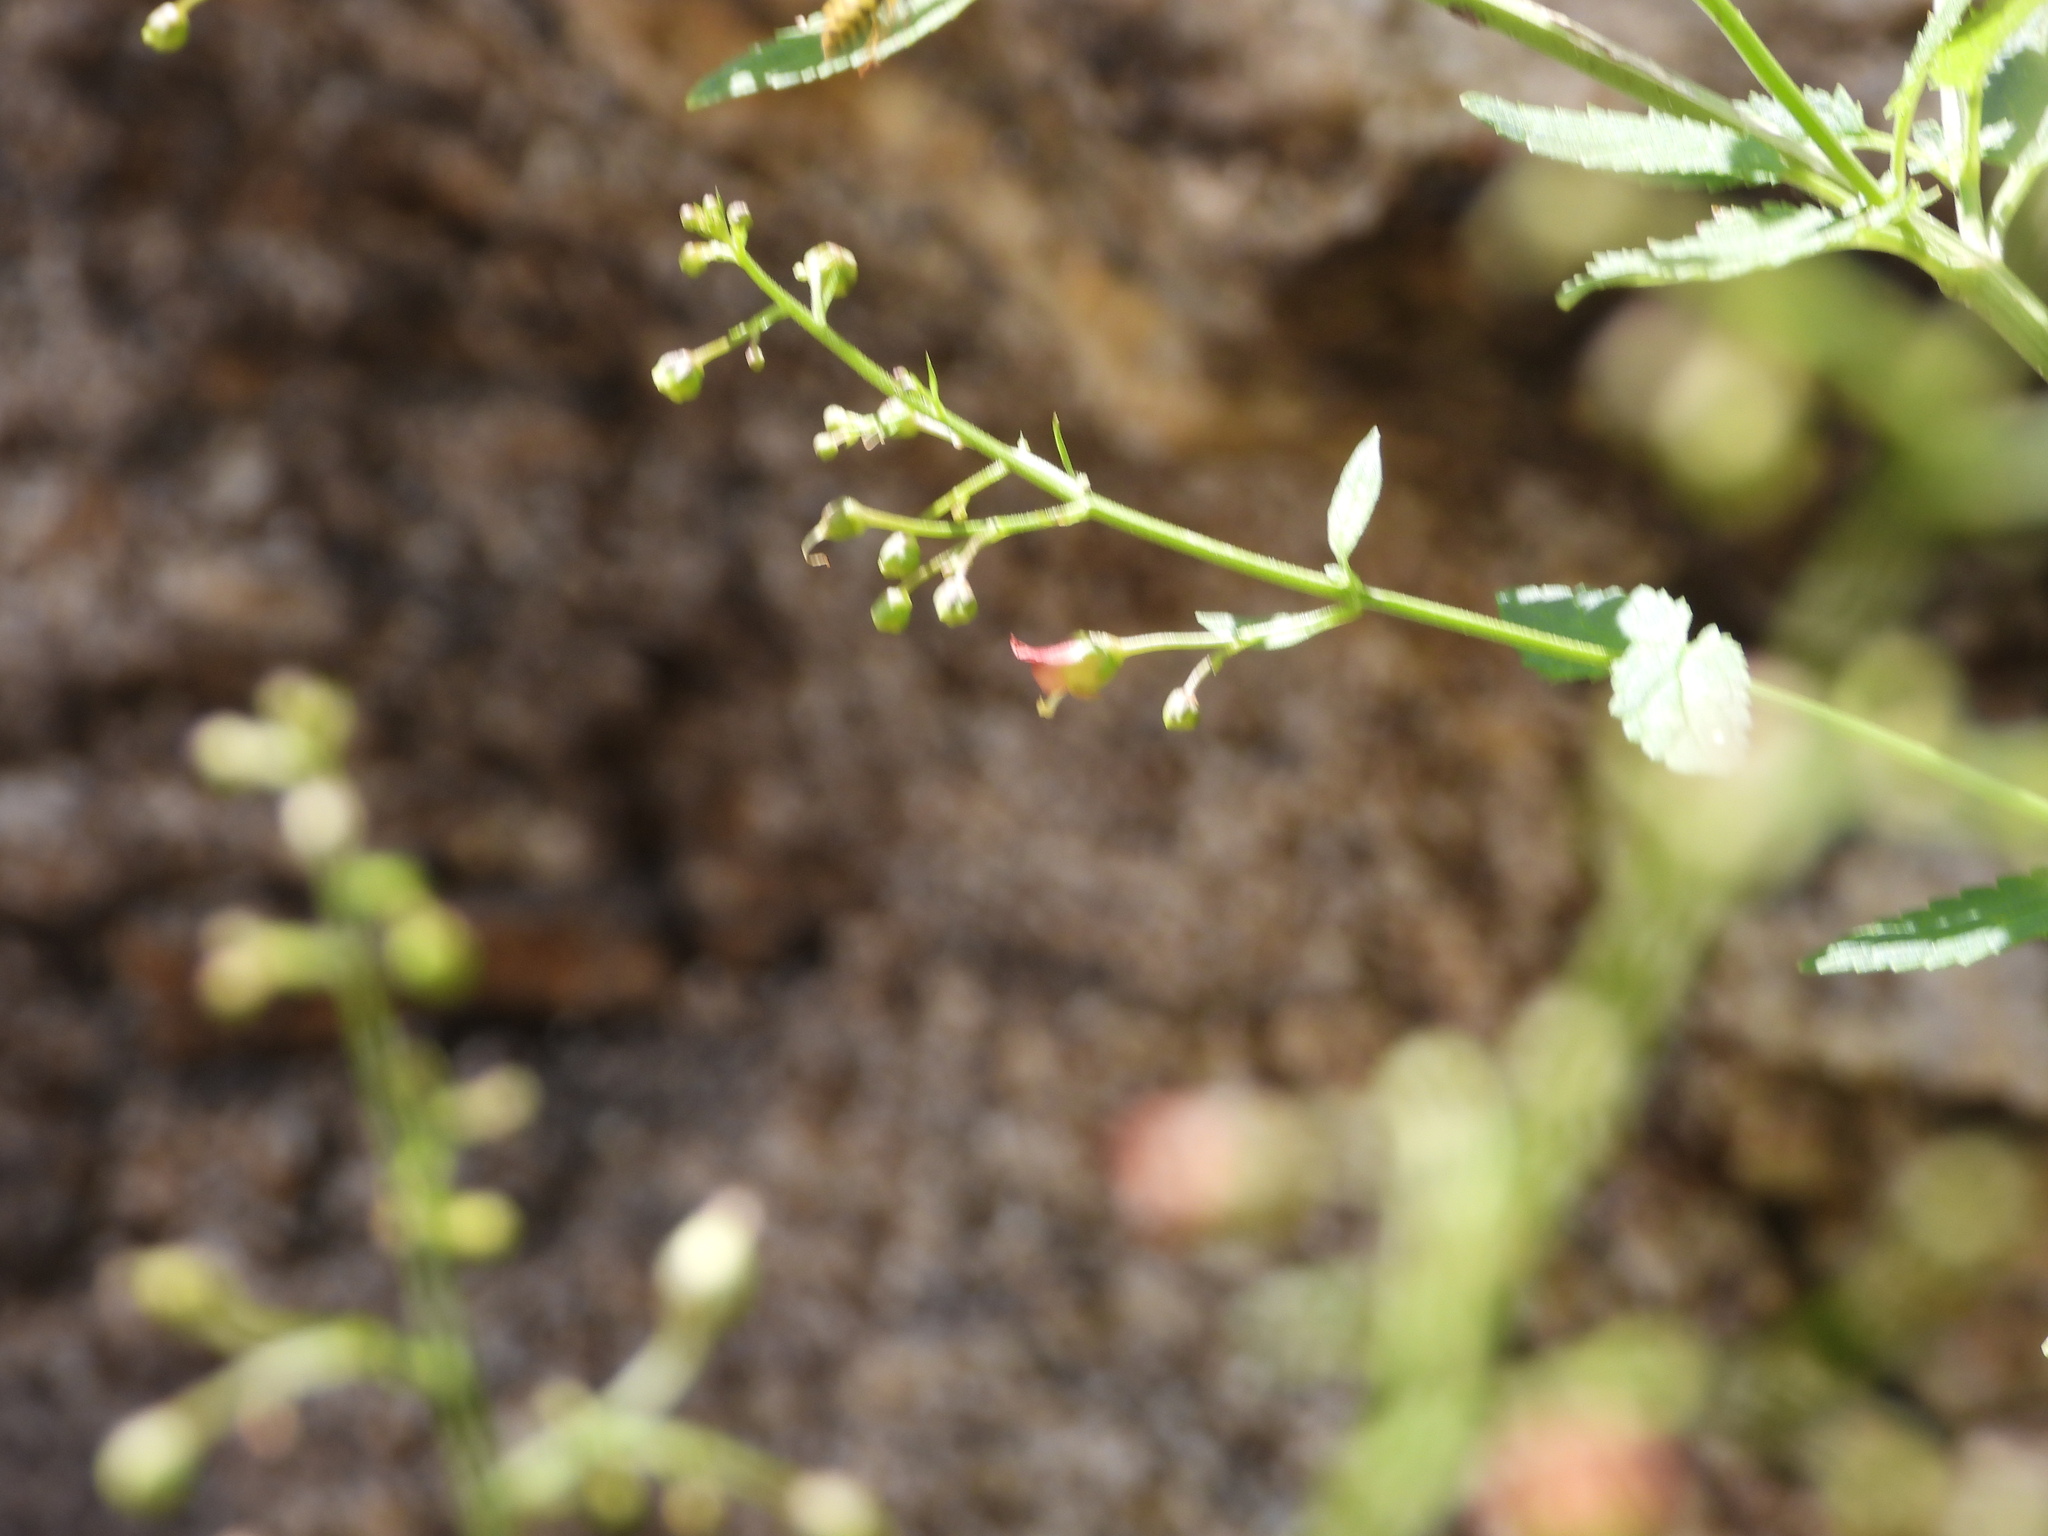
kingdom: Animalia
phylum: Arthropoda
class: Insecta
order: Hymenoptera
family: Vespidae
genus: Vespula
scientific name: Vespula pensylvanica
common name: Western yellowjacket
